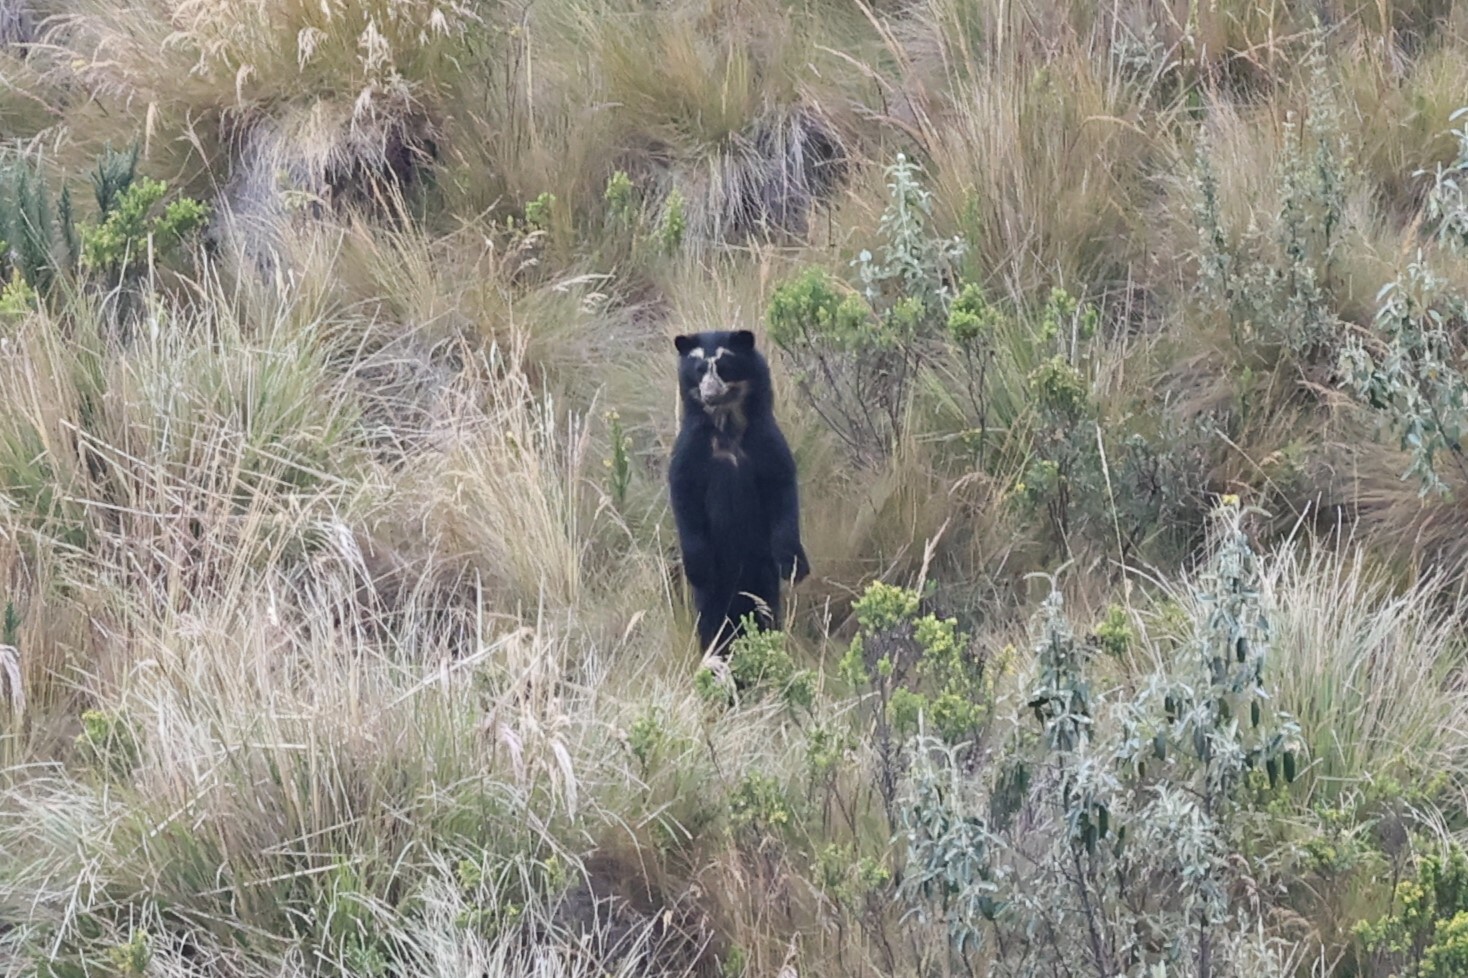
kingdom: Animalia
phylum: Chordata
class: Mammalia
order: Carnivora
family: Ursidae
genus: Tremarctos
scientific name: Tremarctos ornatus
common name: Spectacled bear
